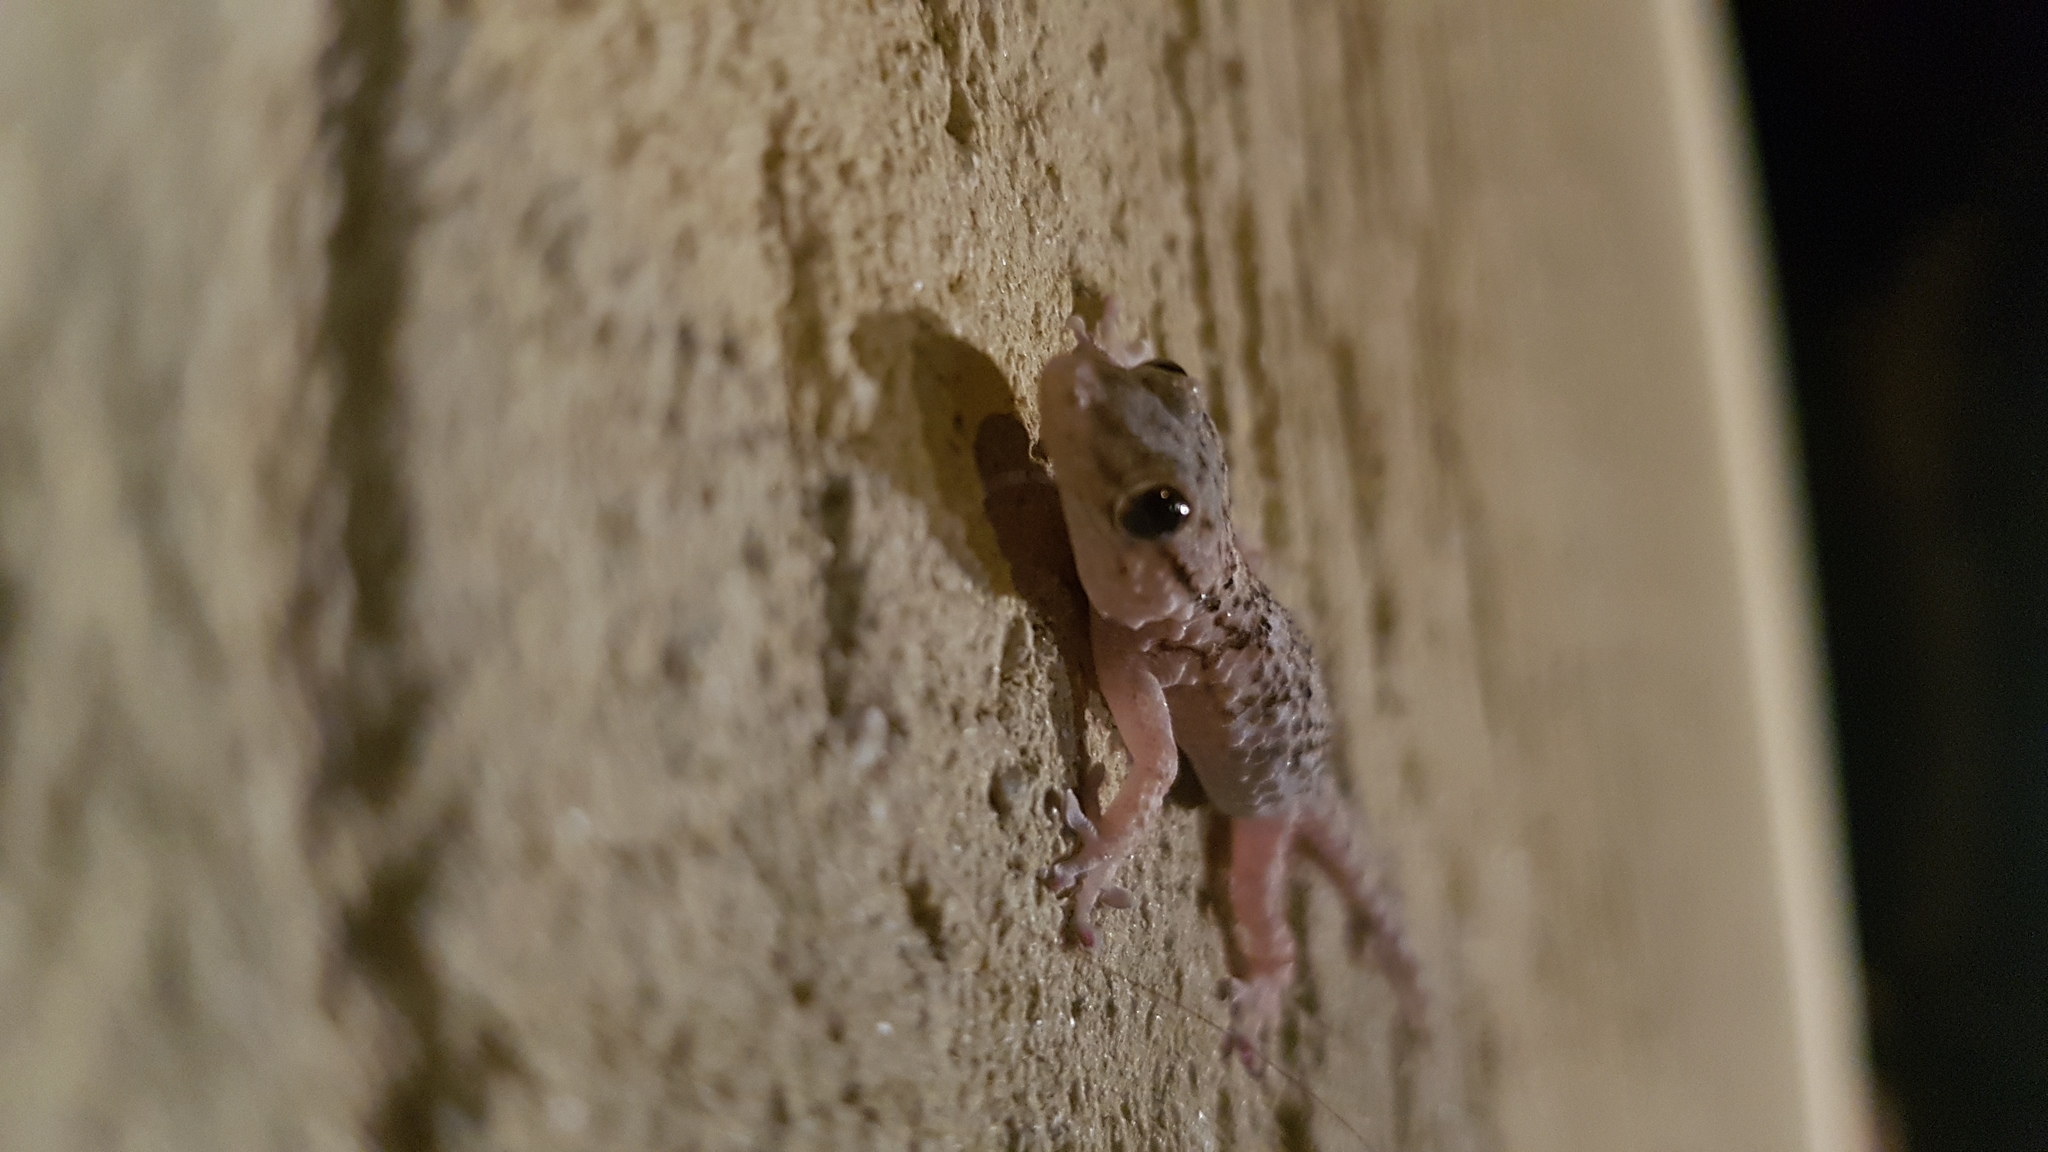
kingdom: Animalia
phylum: Chordata
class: Squamata
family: Gekkonidae
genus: Hemidactylus
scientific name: Hemidactylus turcicus
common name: Turkish gecko
